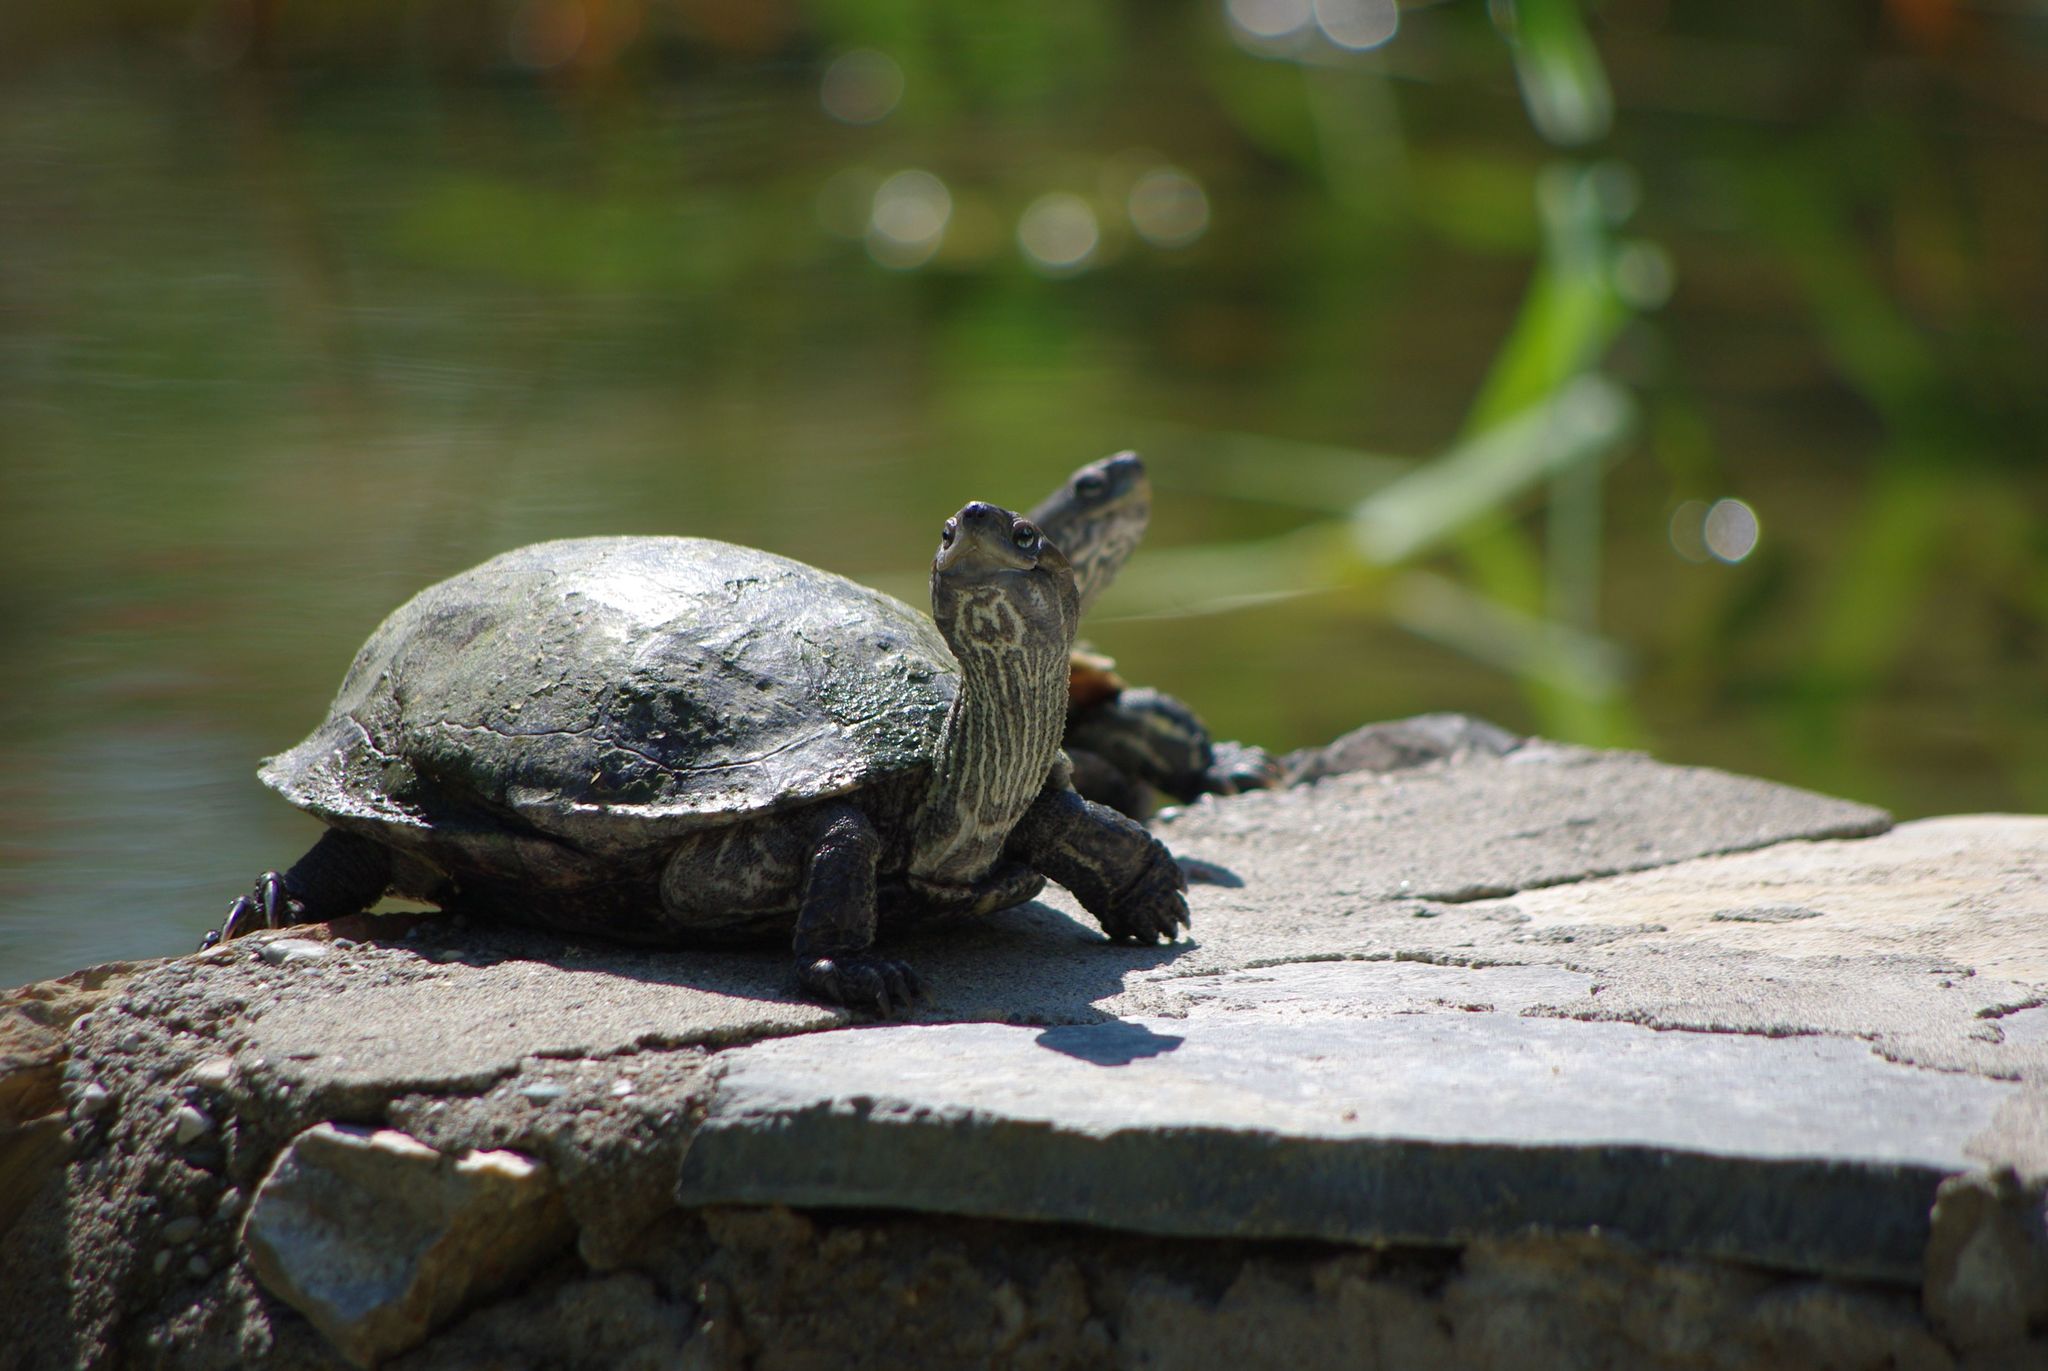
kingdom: Animalia
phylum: Chordata
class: Testudines
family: Geoemydidae
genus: Mauremys
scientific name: Mauremys rivulata
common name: Western caspian turtle
